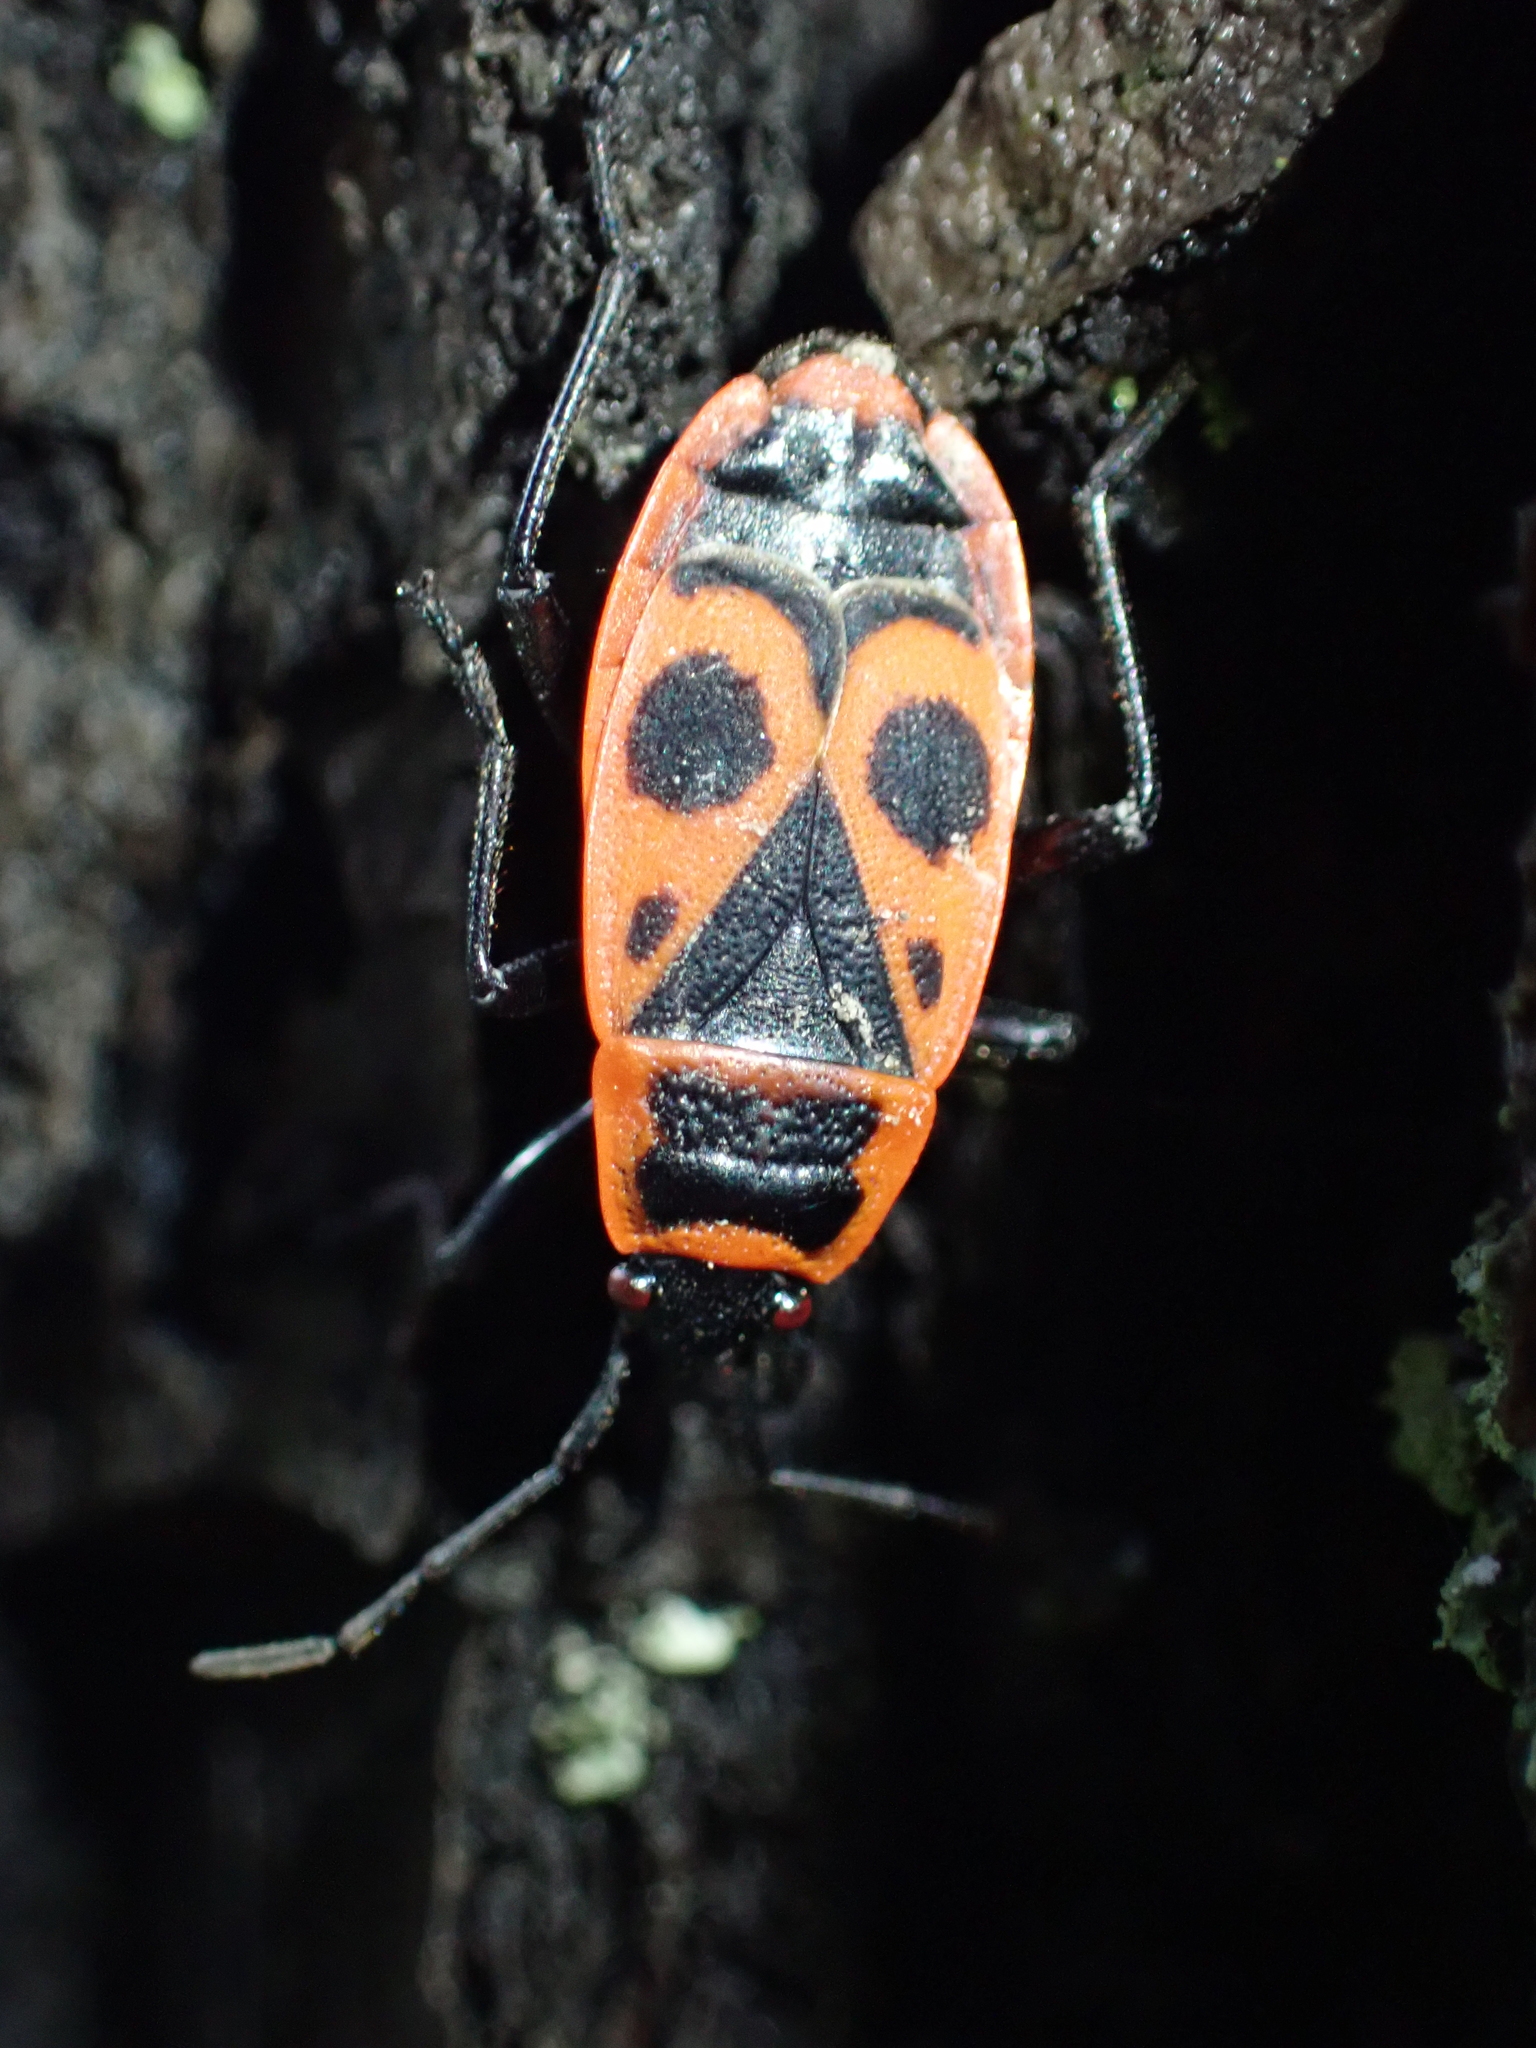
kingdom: Animalia
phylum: Arthropoda
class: Insecta
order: Hemiptera
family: Pyrrhocoridae
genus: Pyrrhocoris
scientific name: Pyrrhocoris apterus
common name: Firebug
